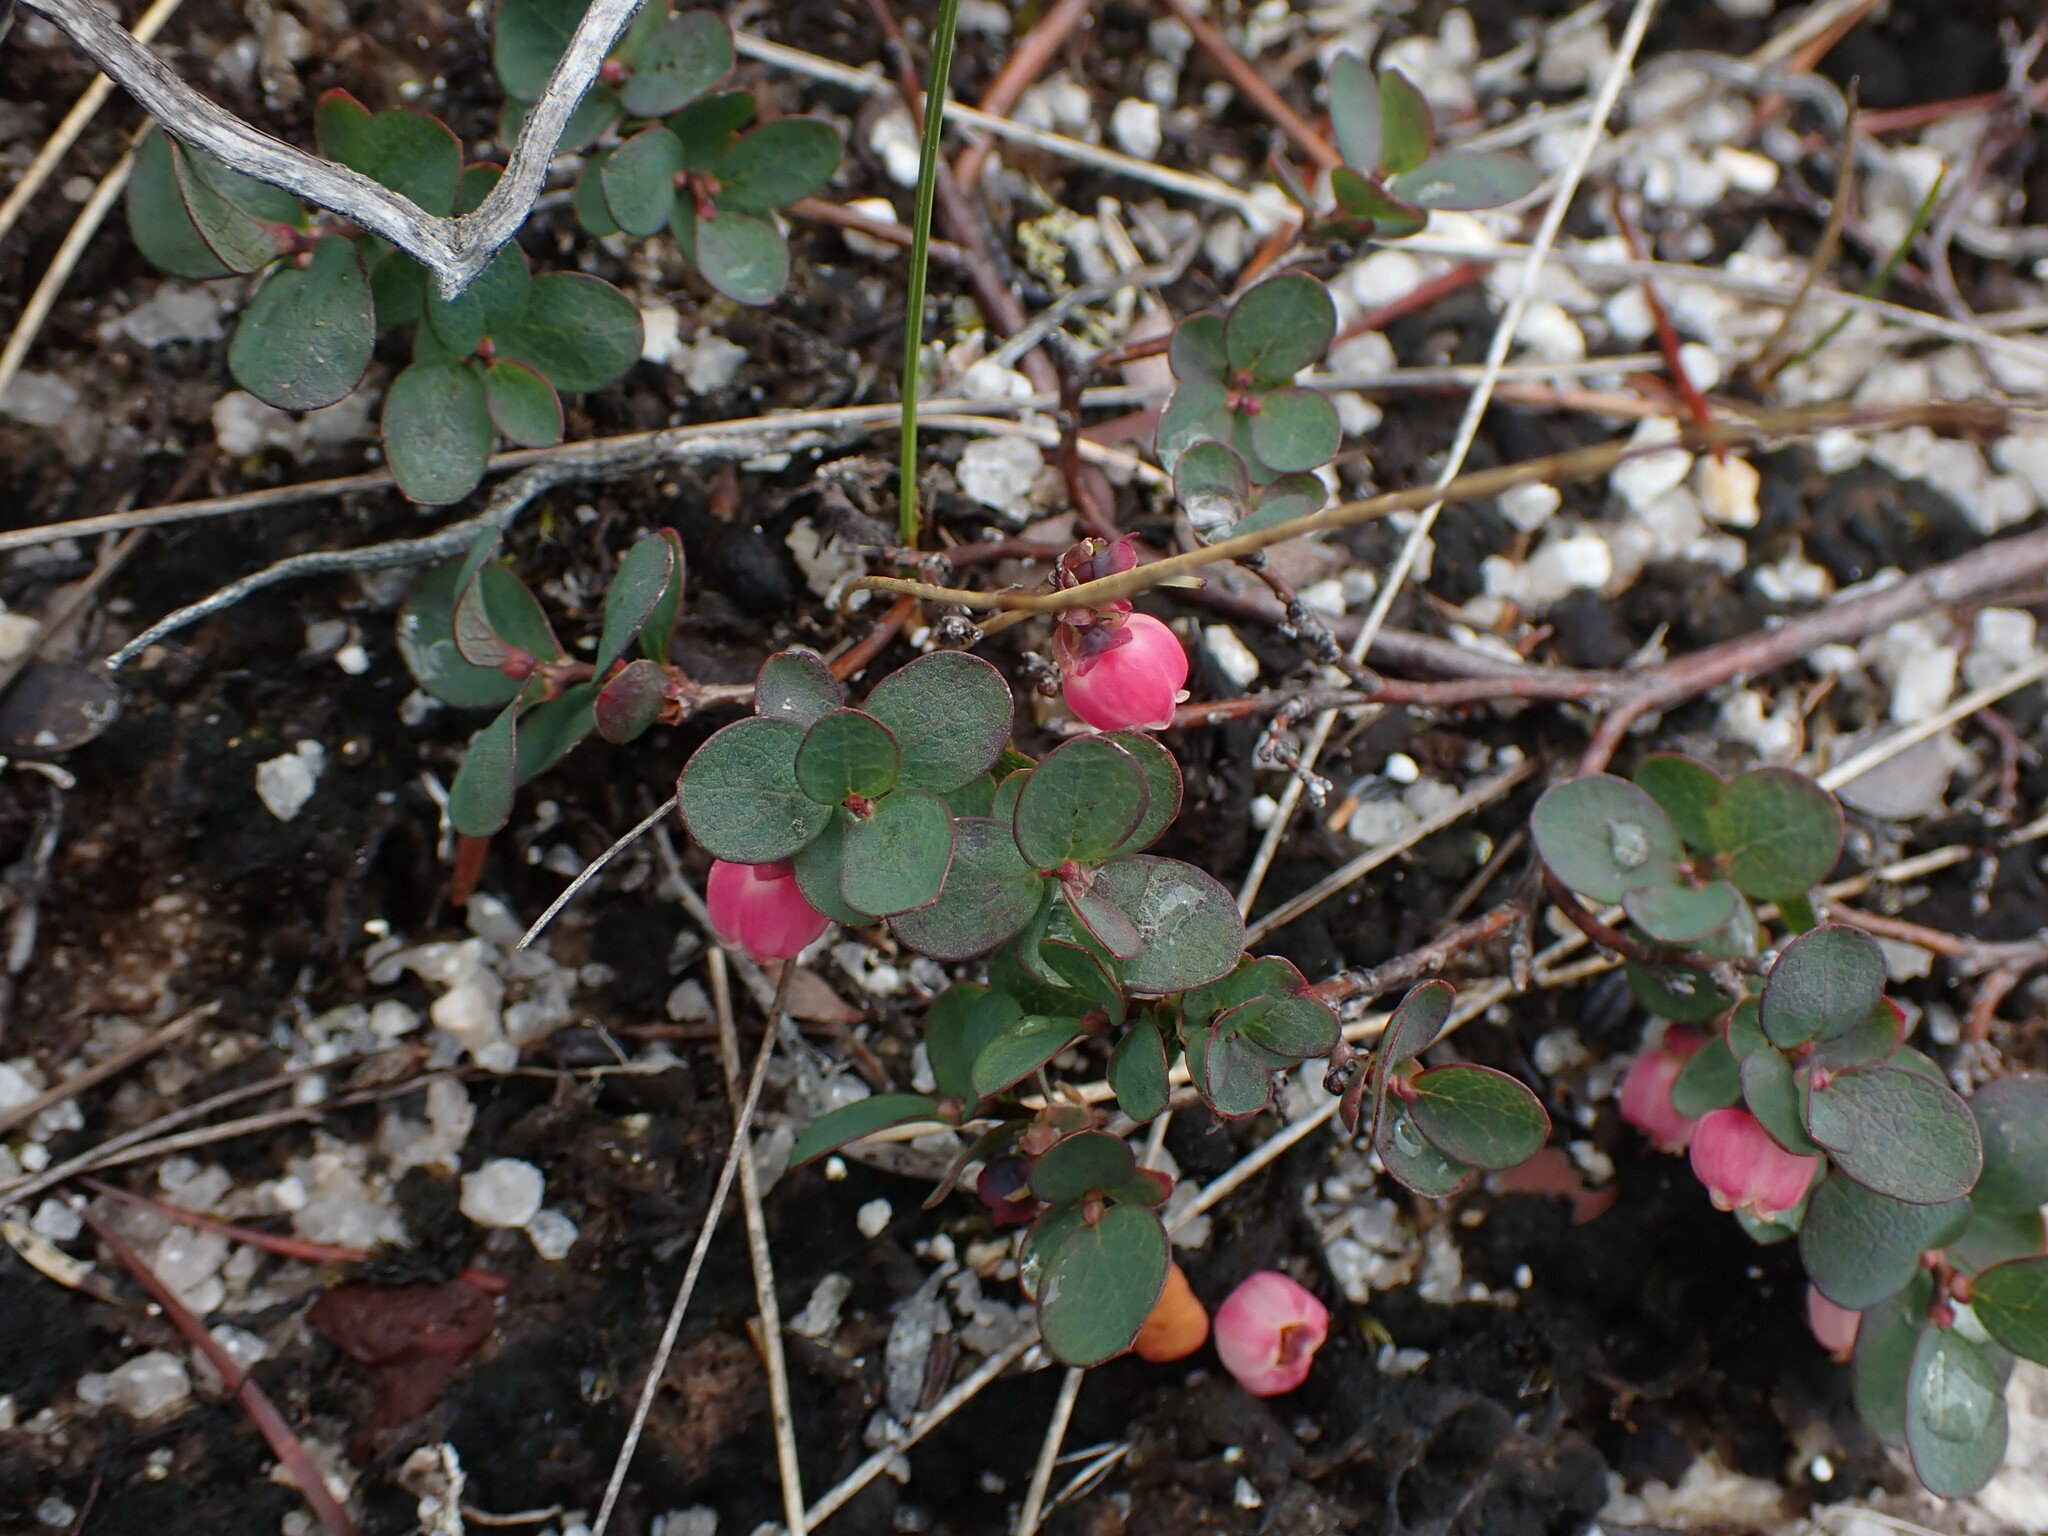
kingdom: Plantae
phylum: Tracheophyta
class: Magnoliopsida
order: Ericales
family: Ericaceae
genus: Vaccinium
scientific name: Vaccinium uliginosum
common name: Bog bilberry
